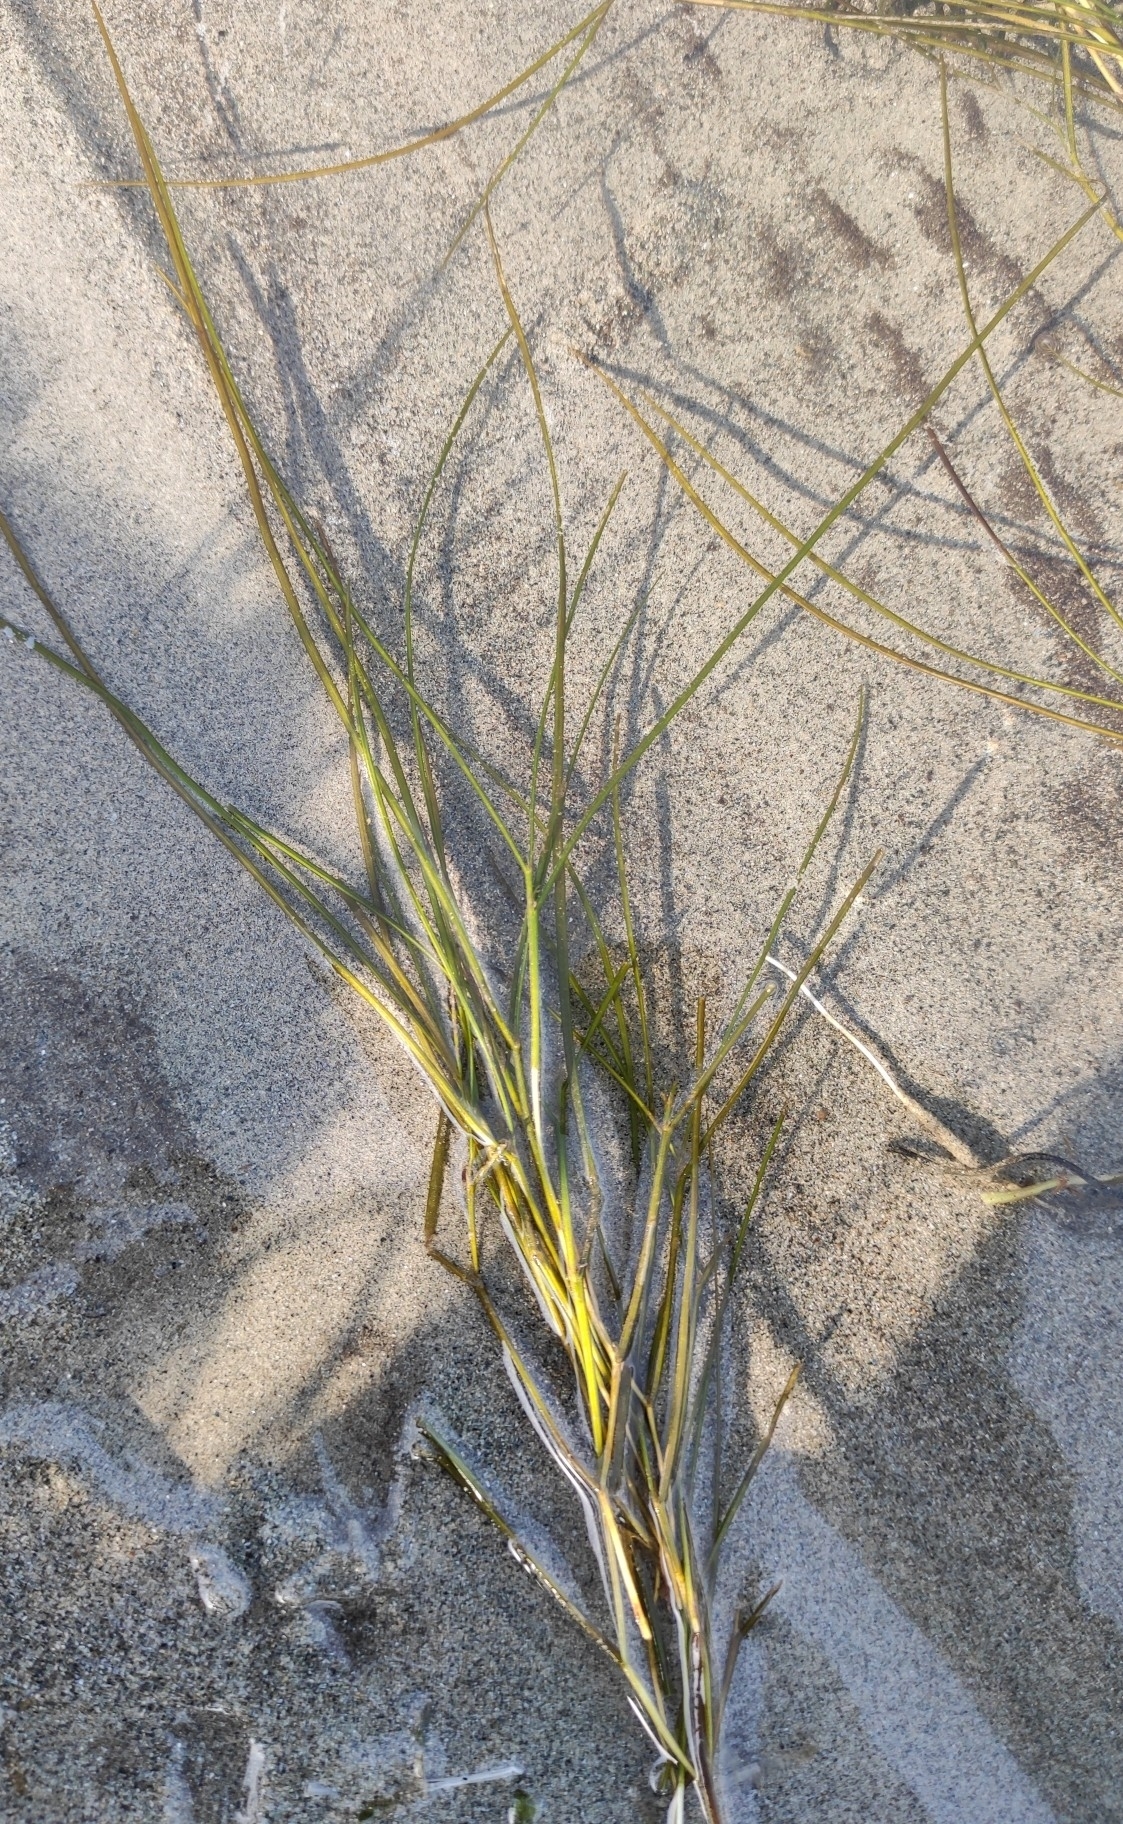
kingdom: Plantae
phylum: Tracheophyta
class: Liliopsida
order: Alismatales
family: Potamogetonaceae
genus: Stuckenia
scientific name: Stuckenia pectinata
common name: Sago pondweed
